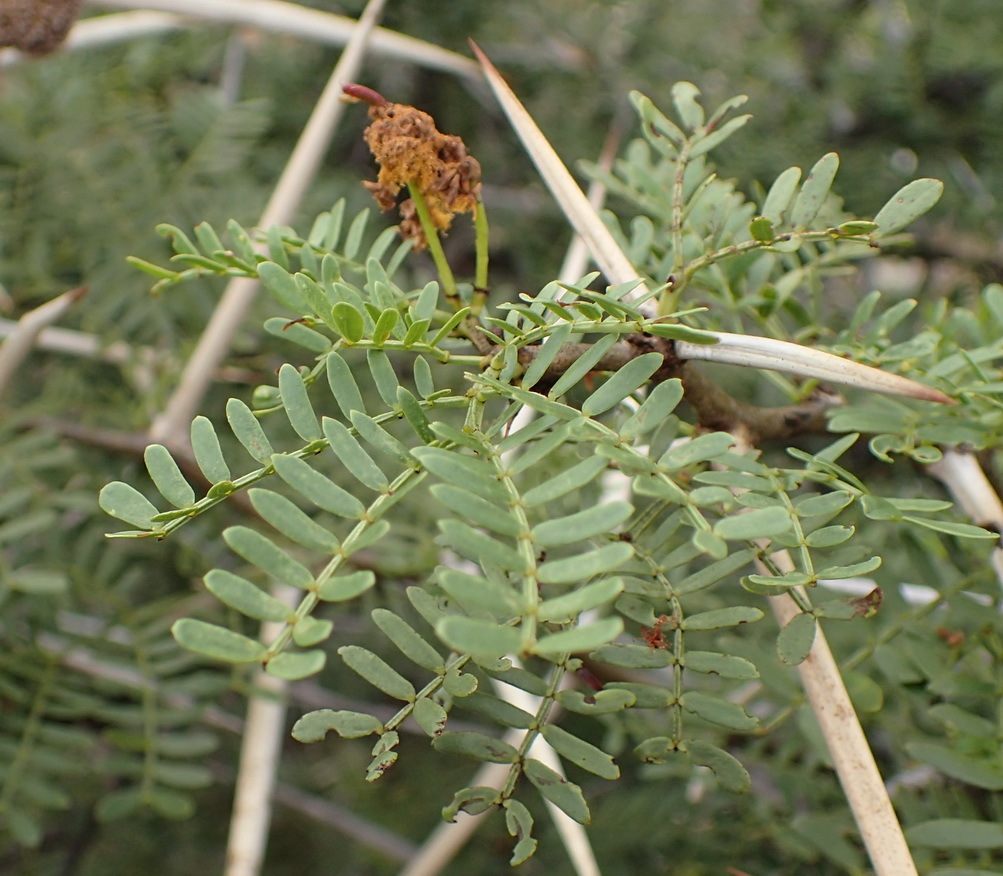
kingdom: Plantae
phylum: Tracheophyta
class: Magnoliopsida
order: Fabales
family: Fabaceae
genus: Vachellia
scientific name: Vachellia karroo
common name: Sweet thorn
